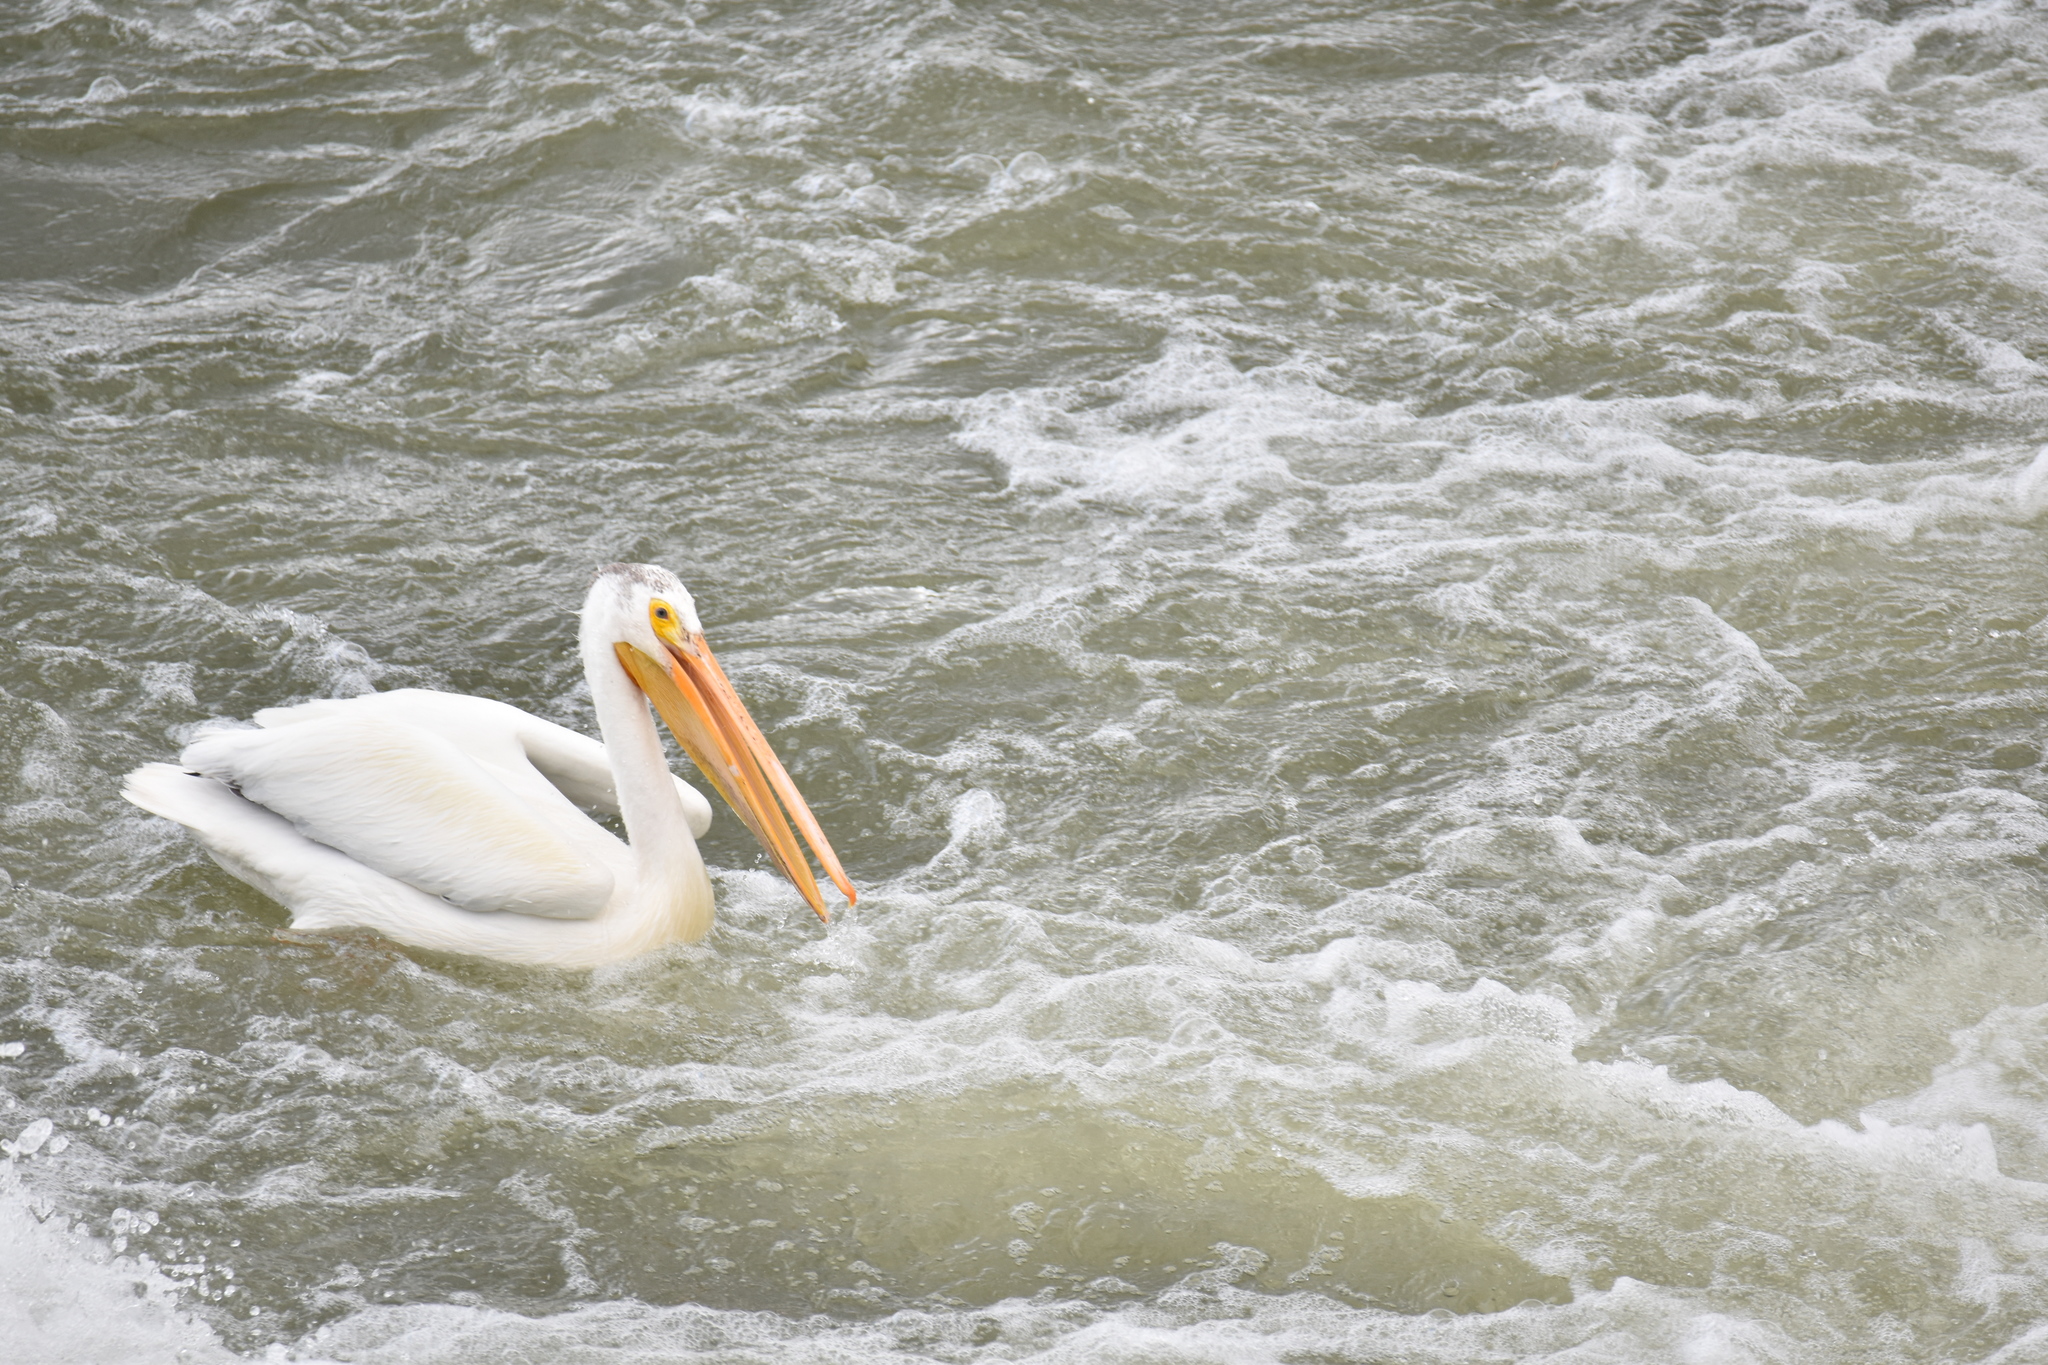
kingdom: Animalia
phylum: Chordata
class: Aves
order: Pelecaniformes
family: Pelecanidae
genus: Pelecanus
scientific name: Pelecanus erythrorhynchos
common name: American white pelican
